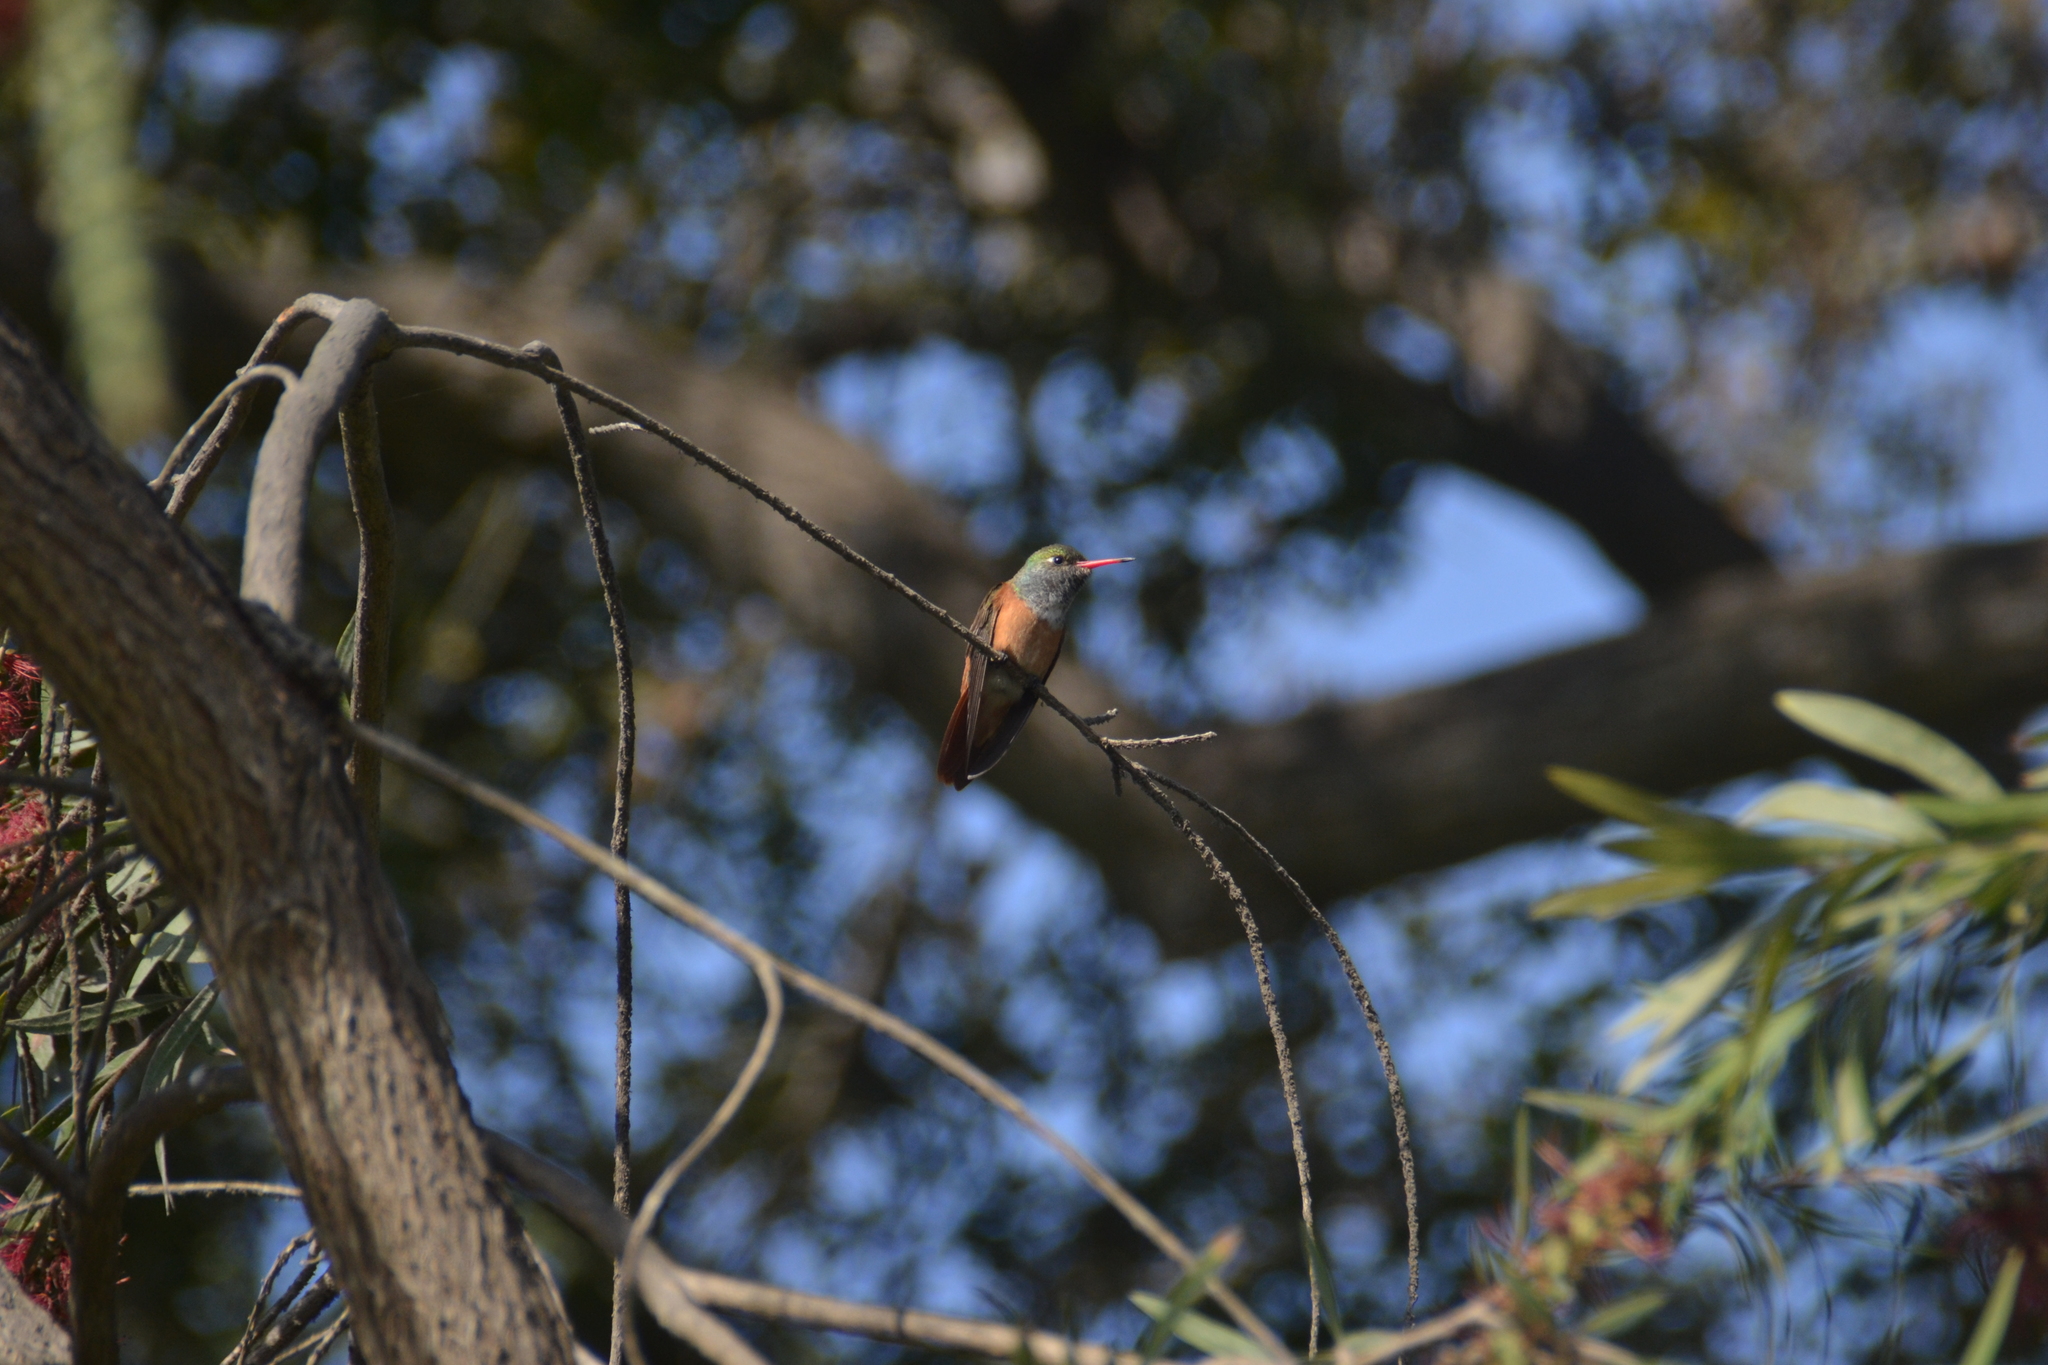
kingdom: Animalia
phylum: Chordata
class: Aves
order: Apodiformes
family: Trochilidae
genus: Amazilis
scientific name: Amazilis amazilia
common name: Amazilia hummingbird
